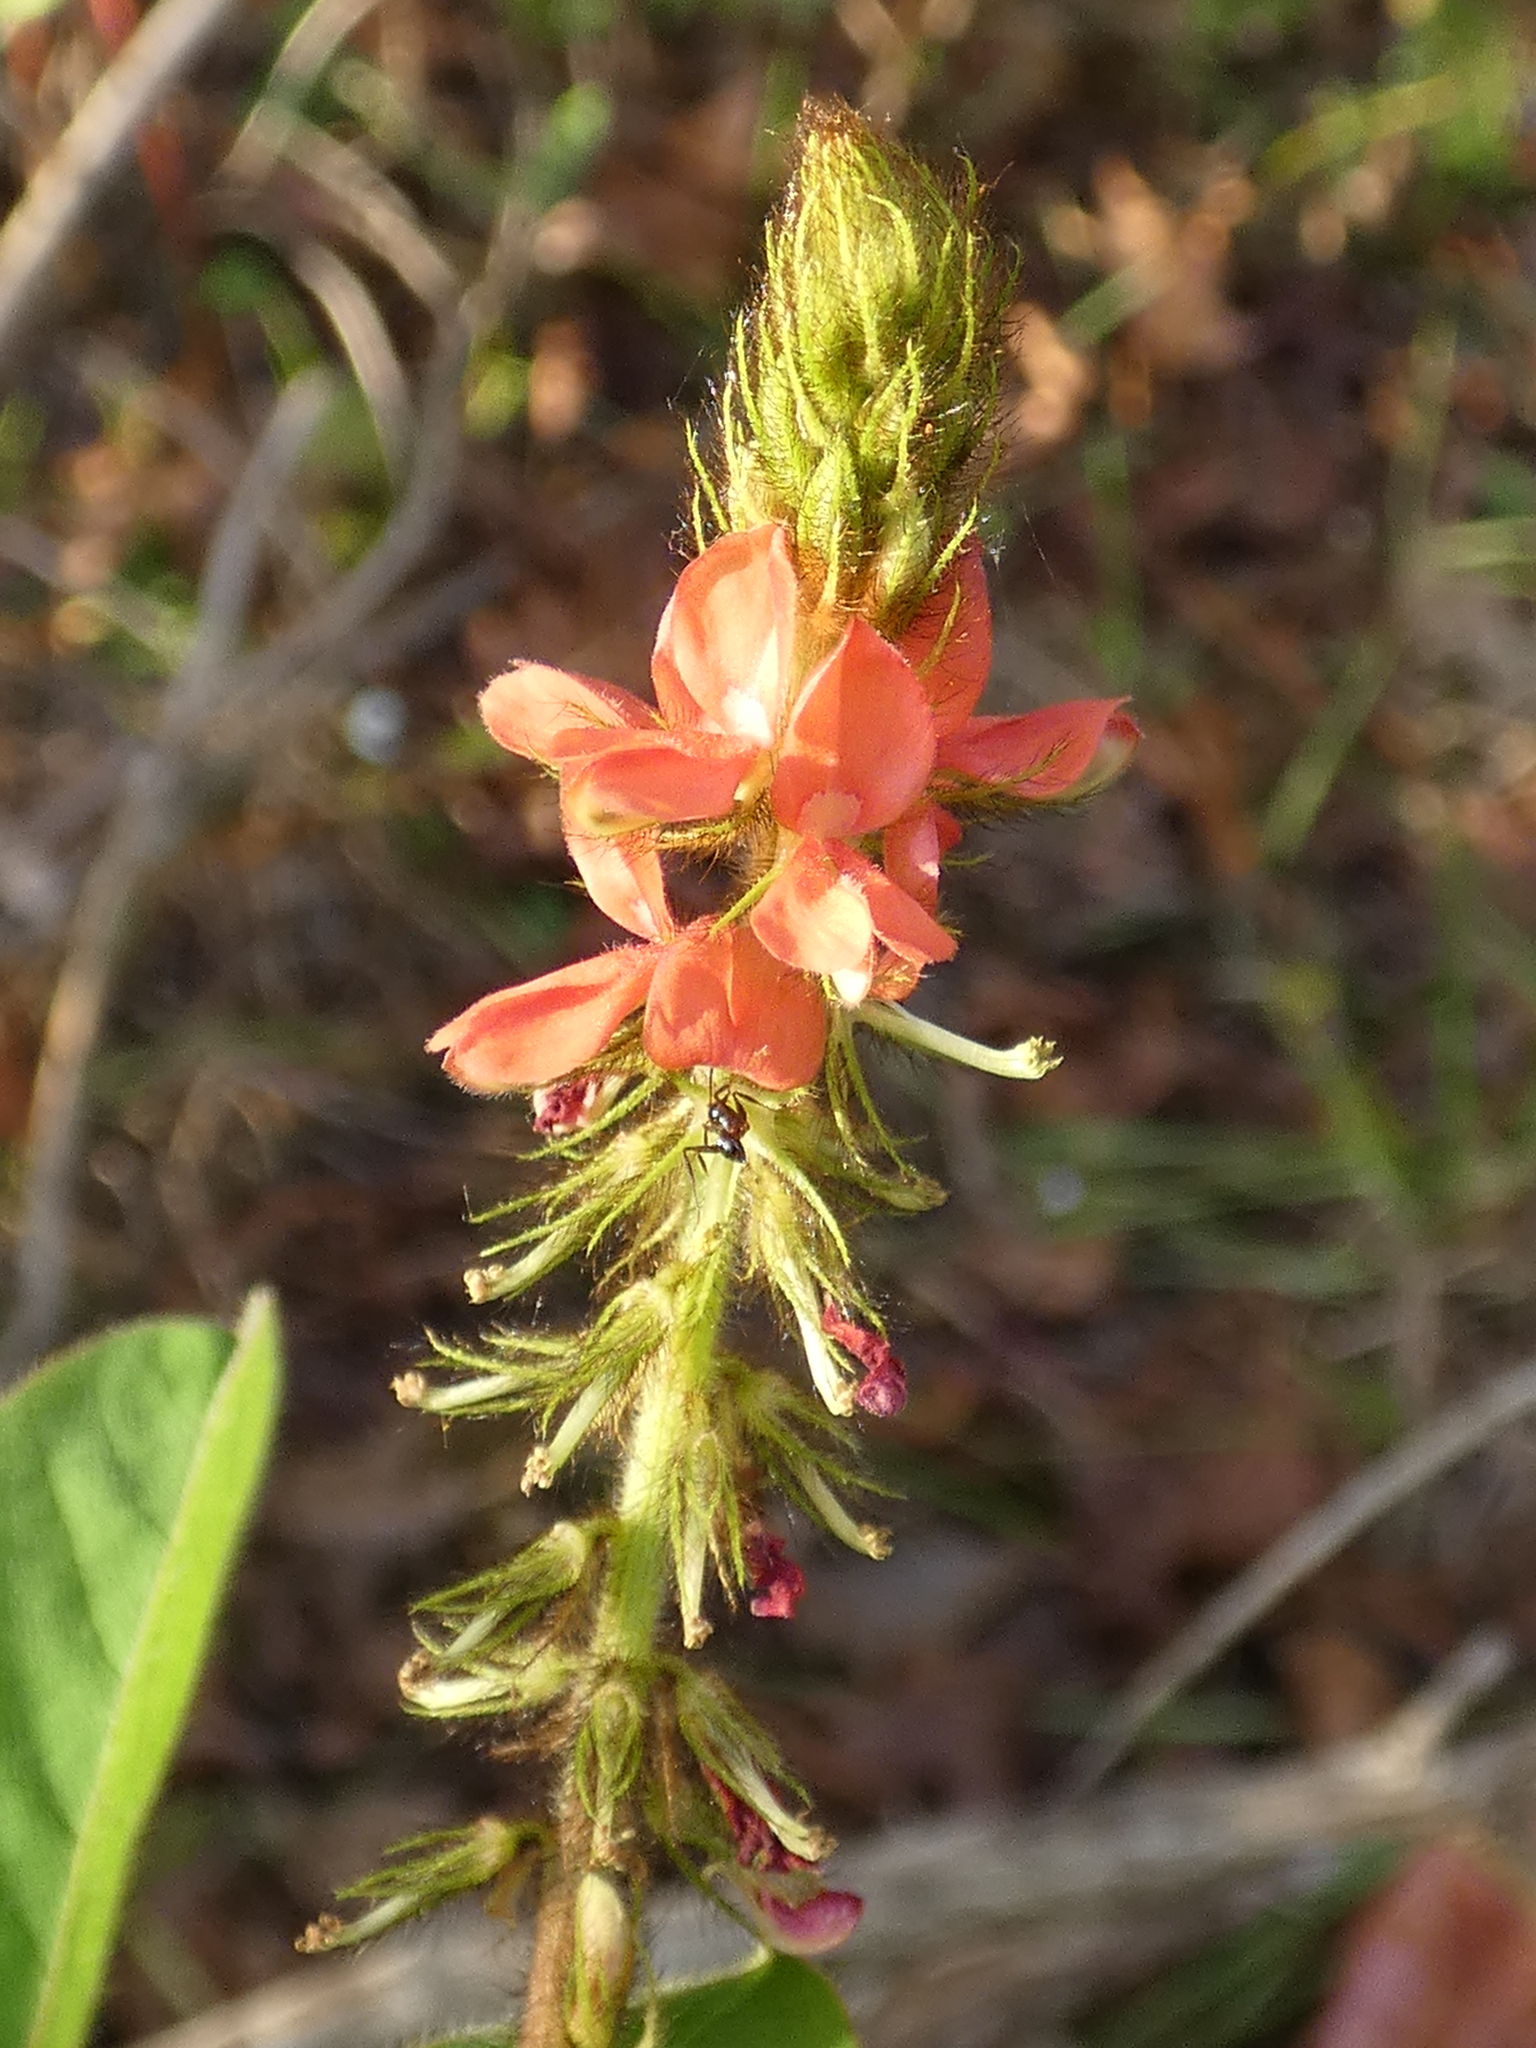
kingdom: Plantae
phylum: Tracheophyta
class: Magnoliopsida
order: Fabales
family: Fabaceae
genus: Indigofera
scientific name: Indigofera hirsuta
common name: Hairy indigo
